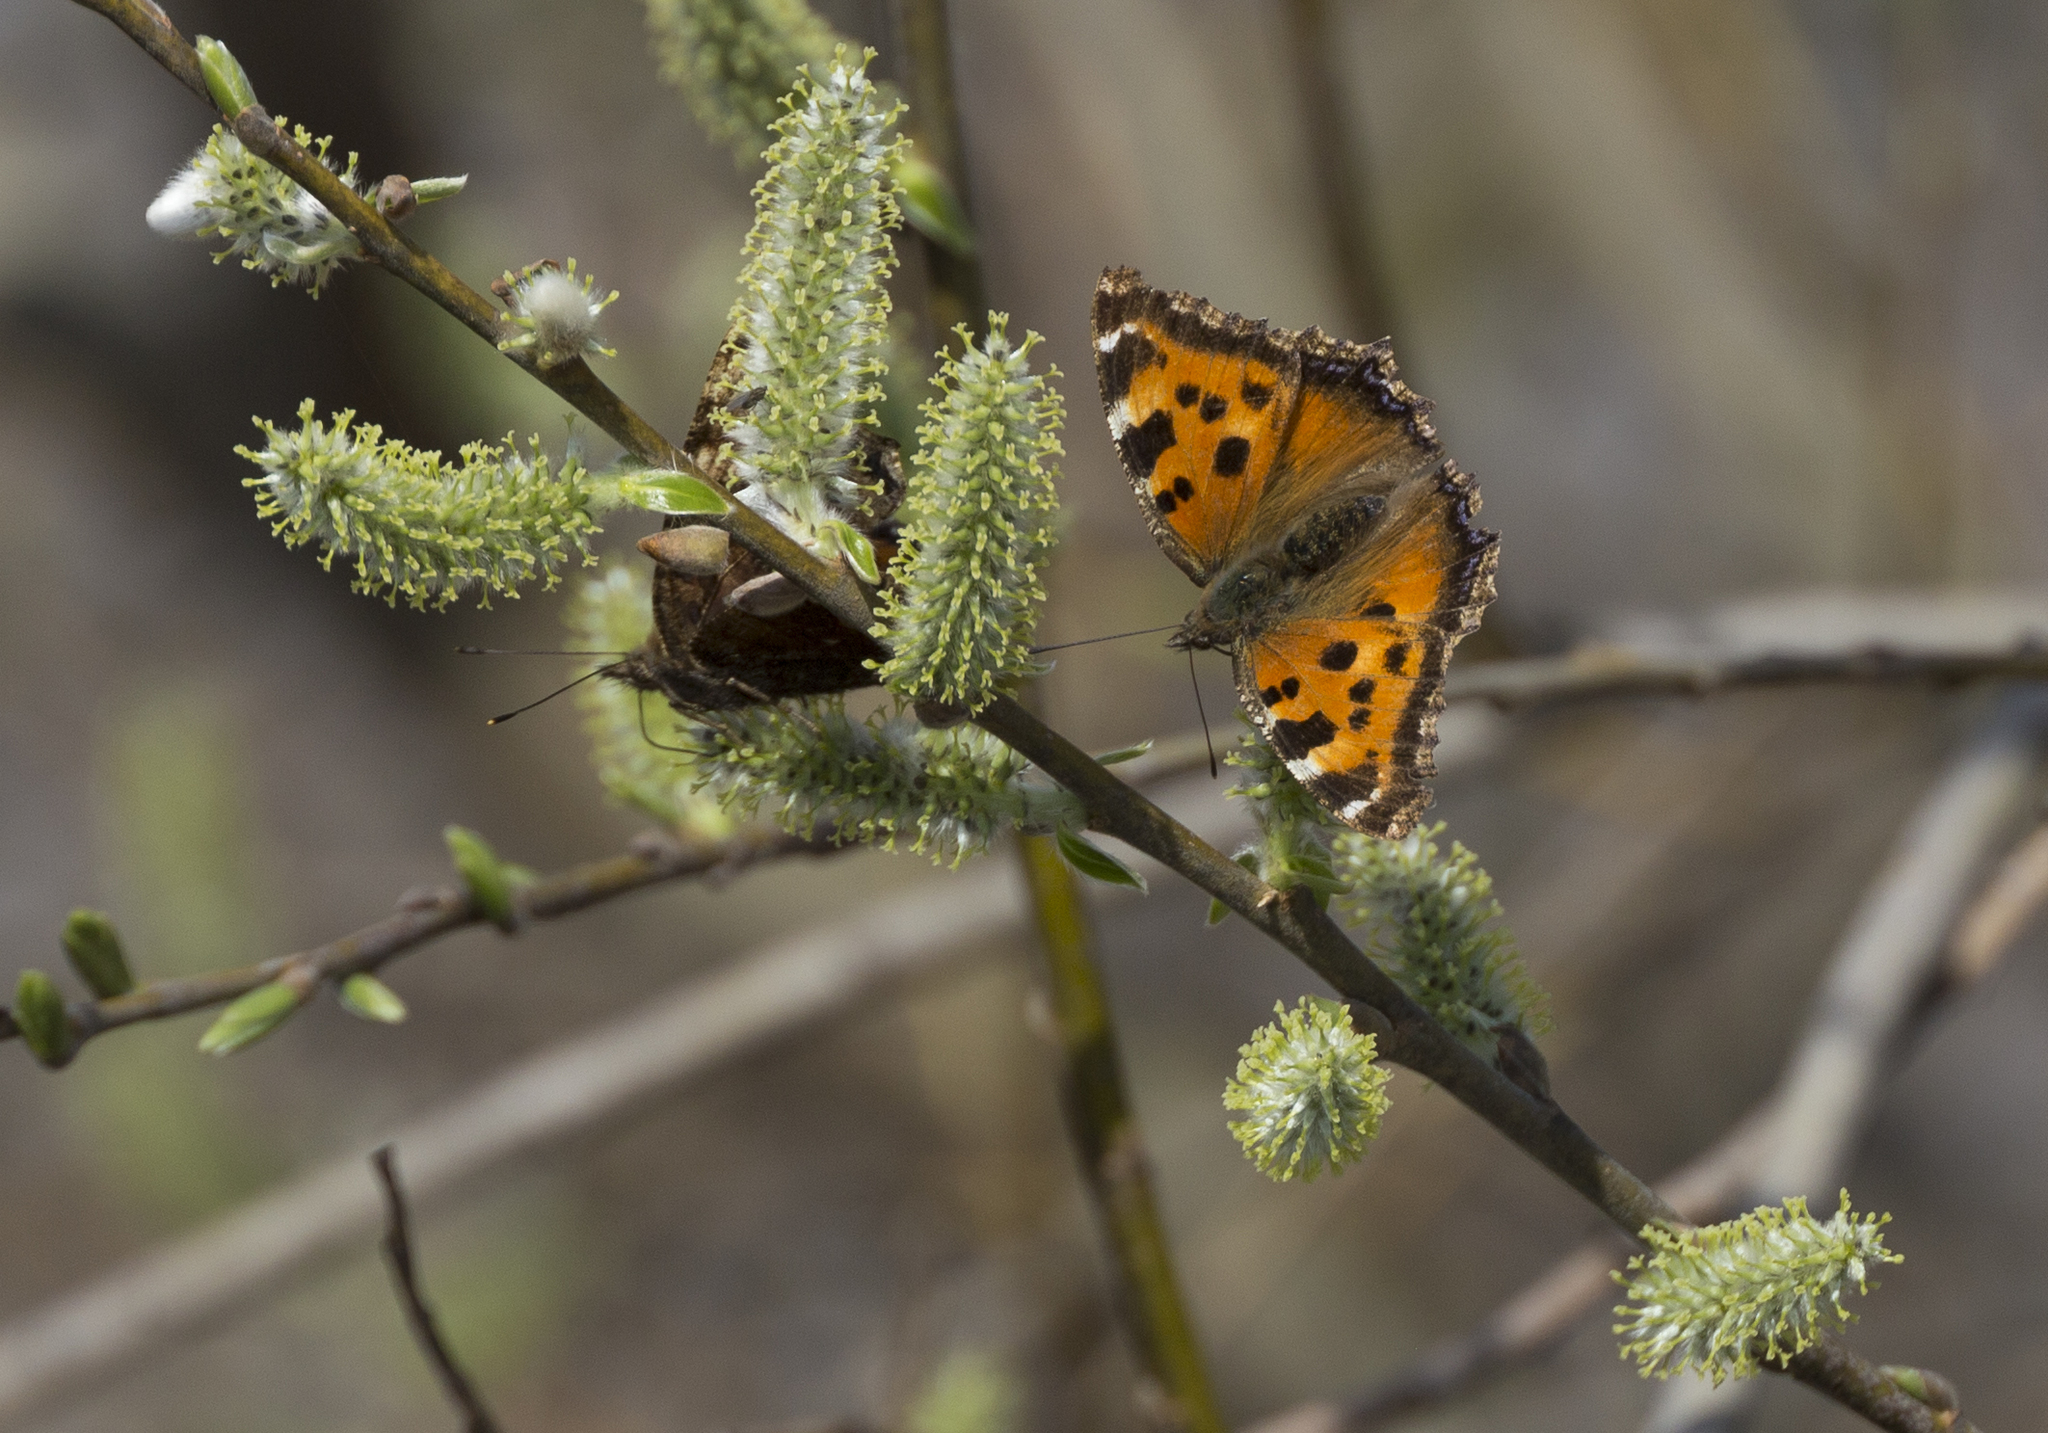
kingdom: Animalia
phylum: Arthropoda
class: Insecta
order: Lepidoptera
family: Nymphalidae
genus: Nymphalis
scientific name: Nymphalis xanthomelas
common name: Scarce tortoiseshell
